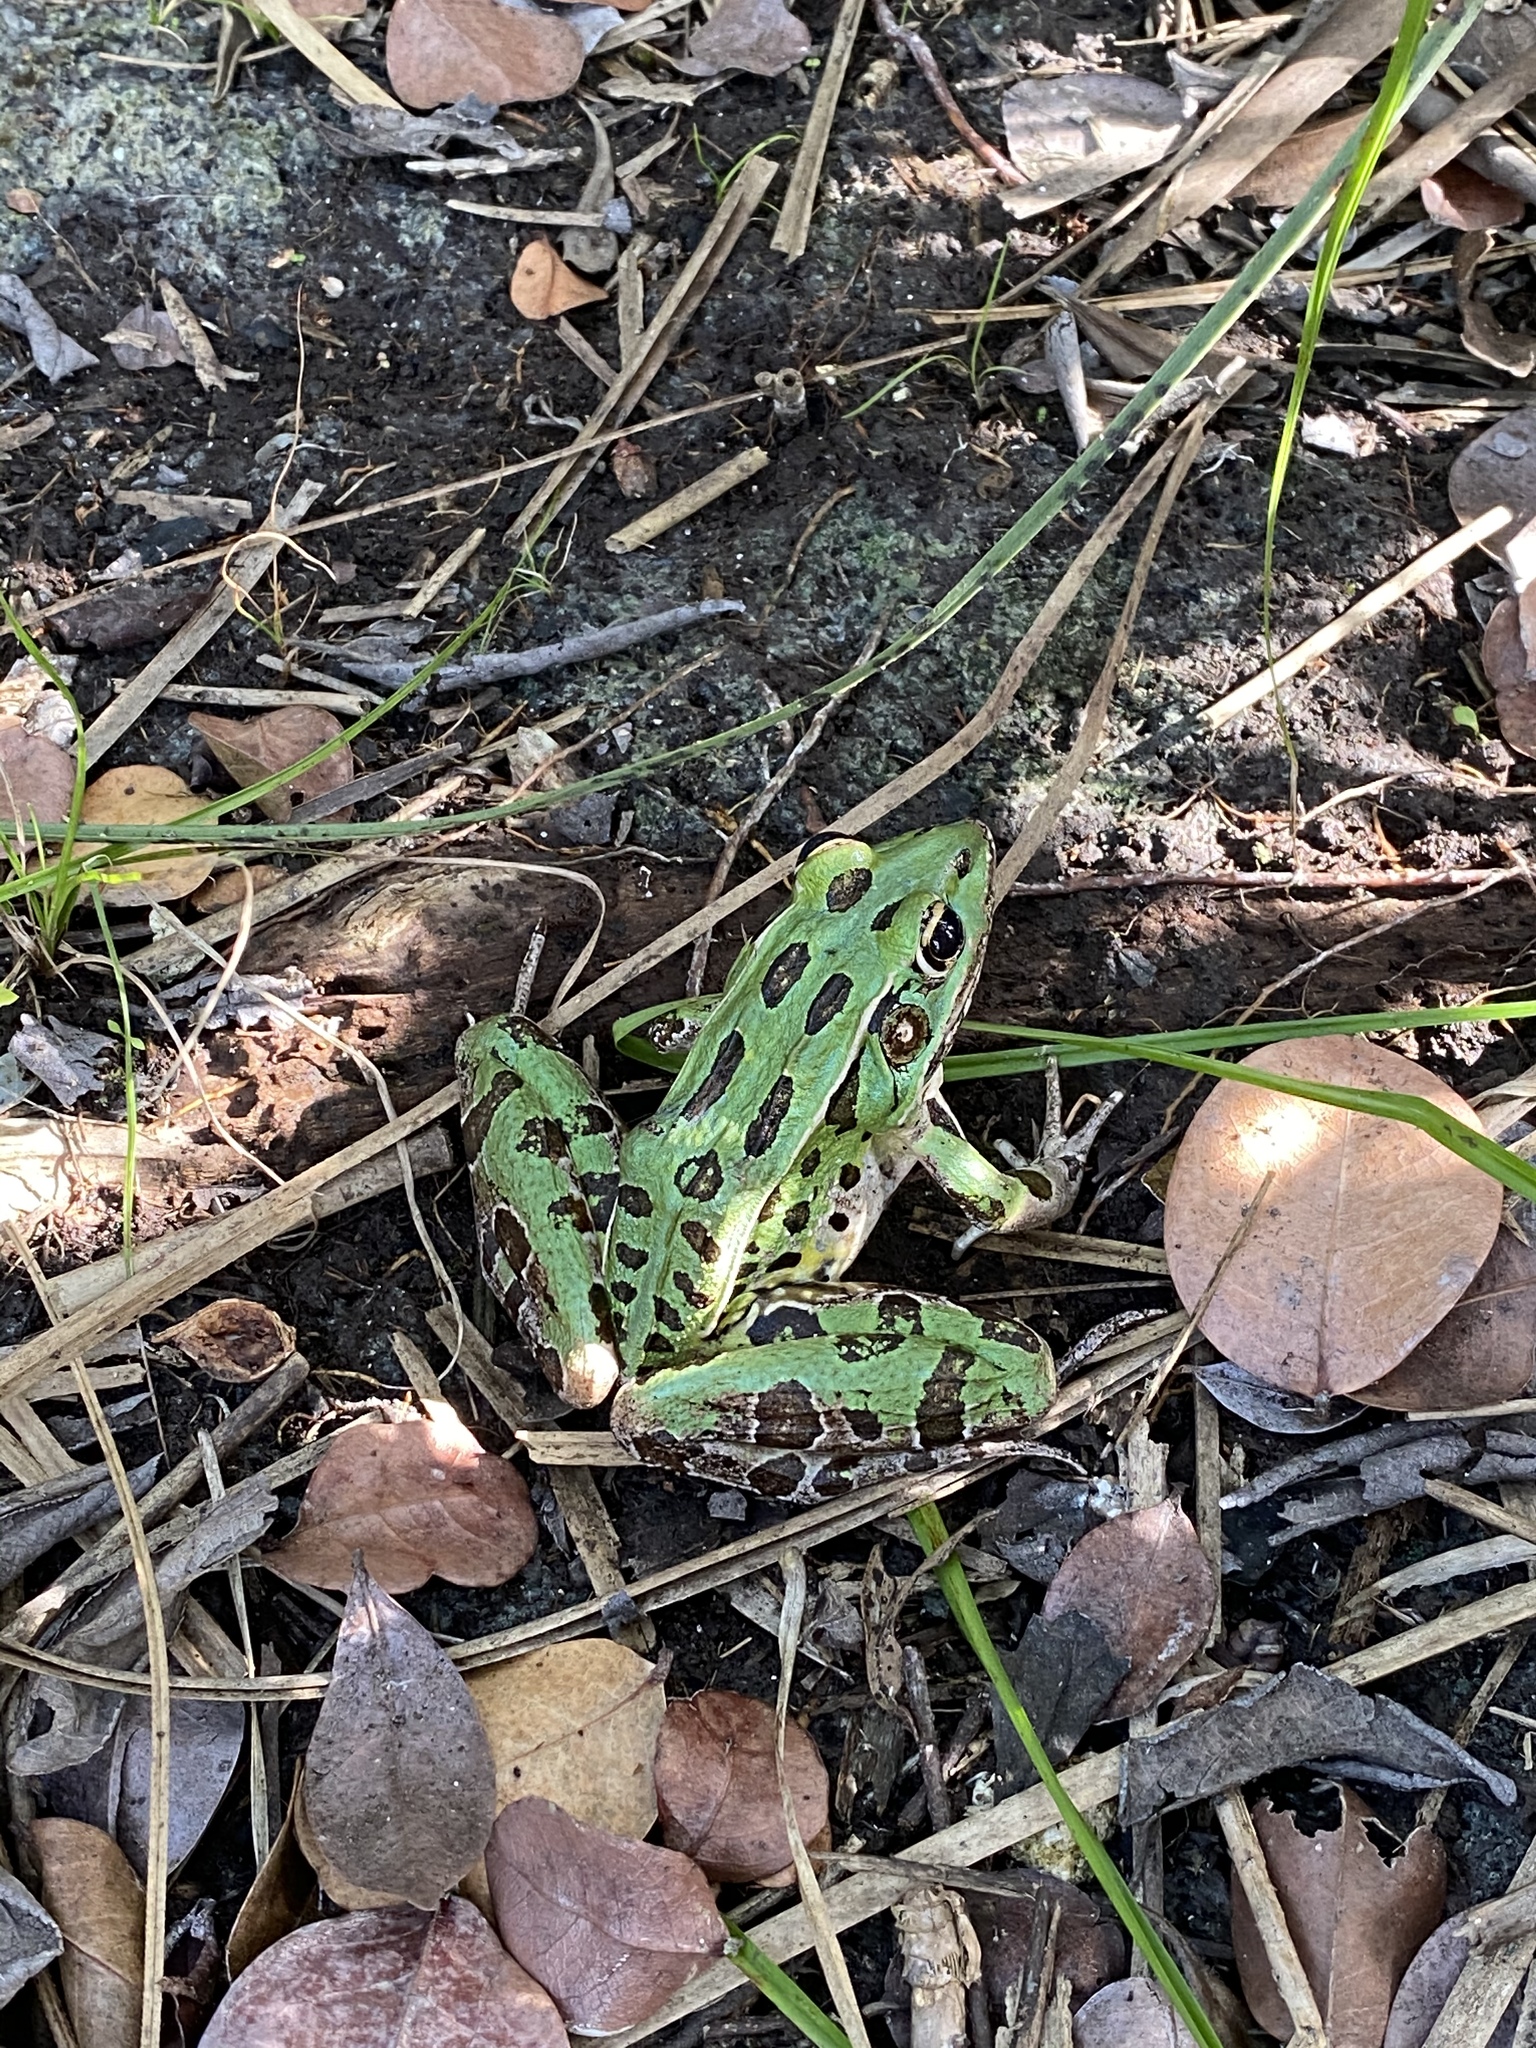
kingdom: Animalia
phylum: Chordata
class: Amphibia
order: Anura
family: Ranidae
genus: Lithobates
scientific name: Lithobates sphenocephalus
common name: Southern leopard frog
